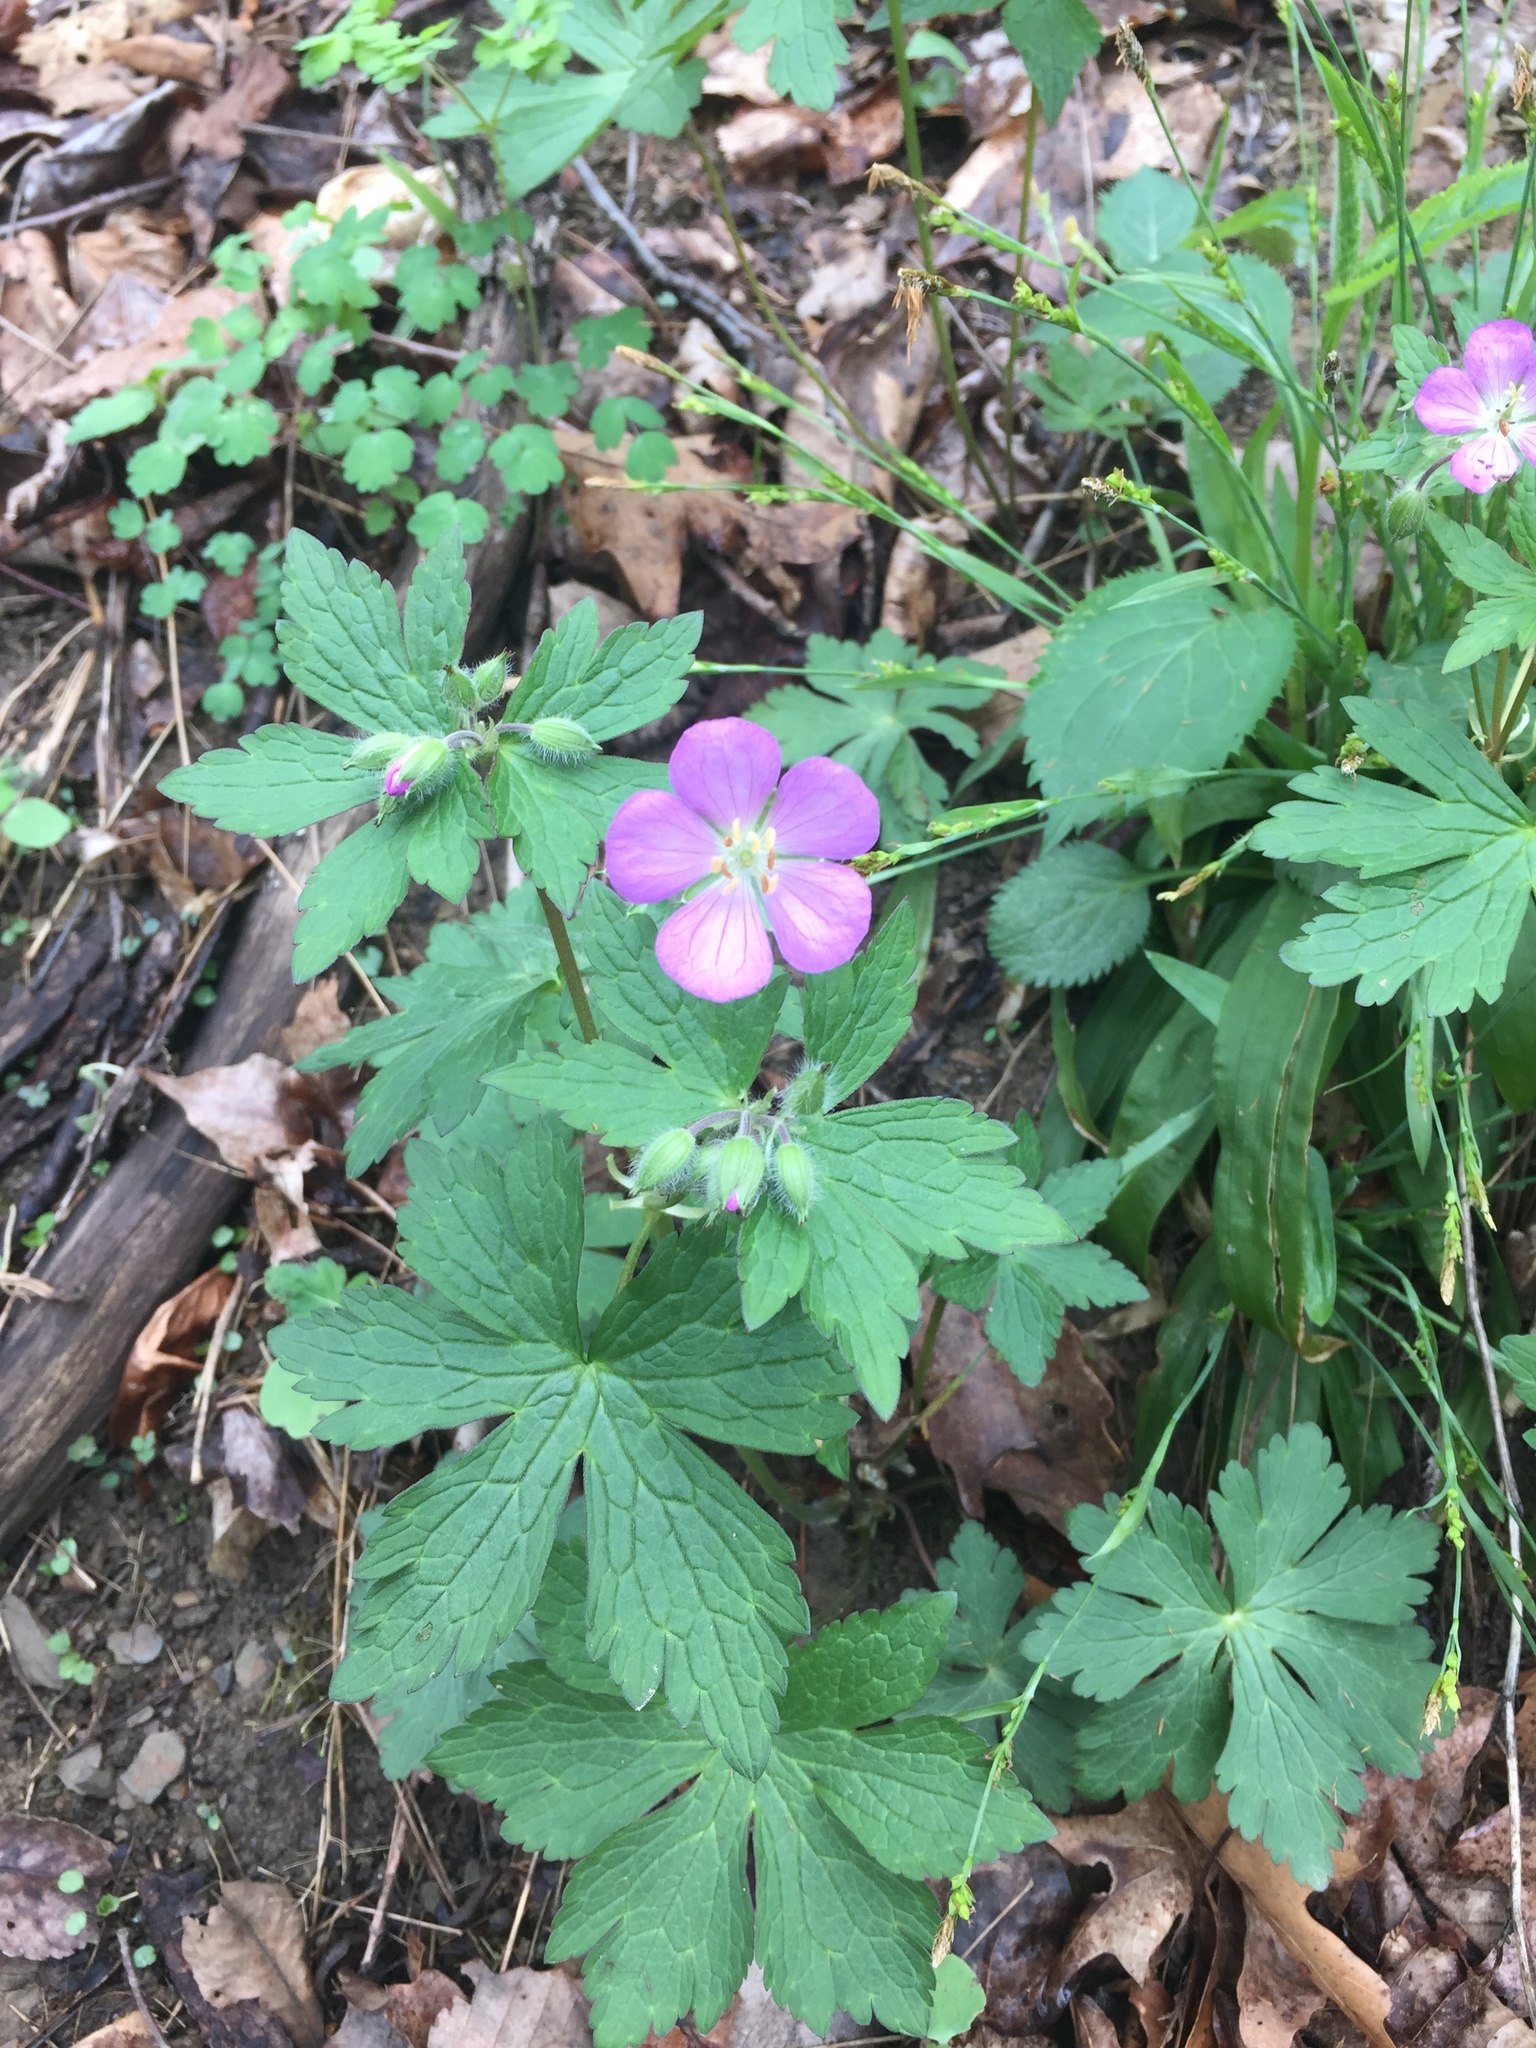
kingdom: Plantae
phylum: Tracheophyta
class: Magnoliopsida
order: Geraniales
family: Geraniaceae
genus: Geranium
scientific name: Geranium maculatum
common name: Spotted geranium
